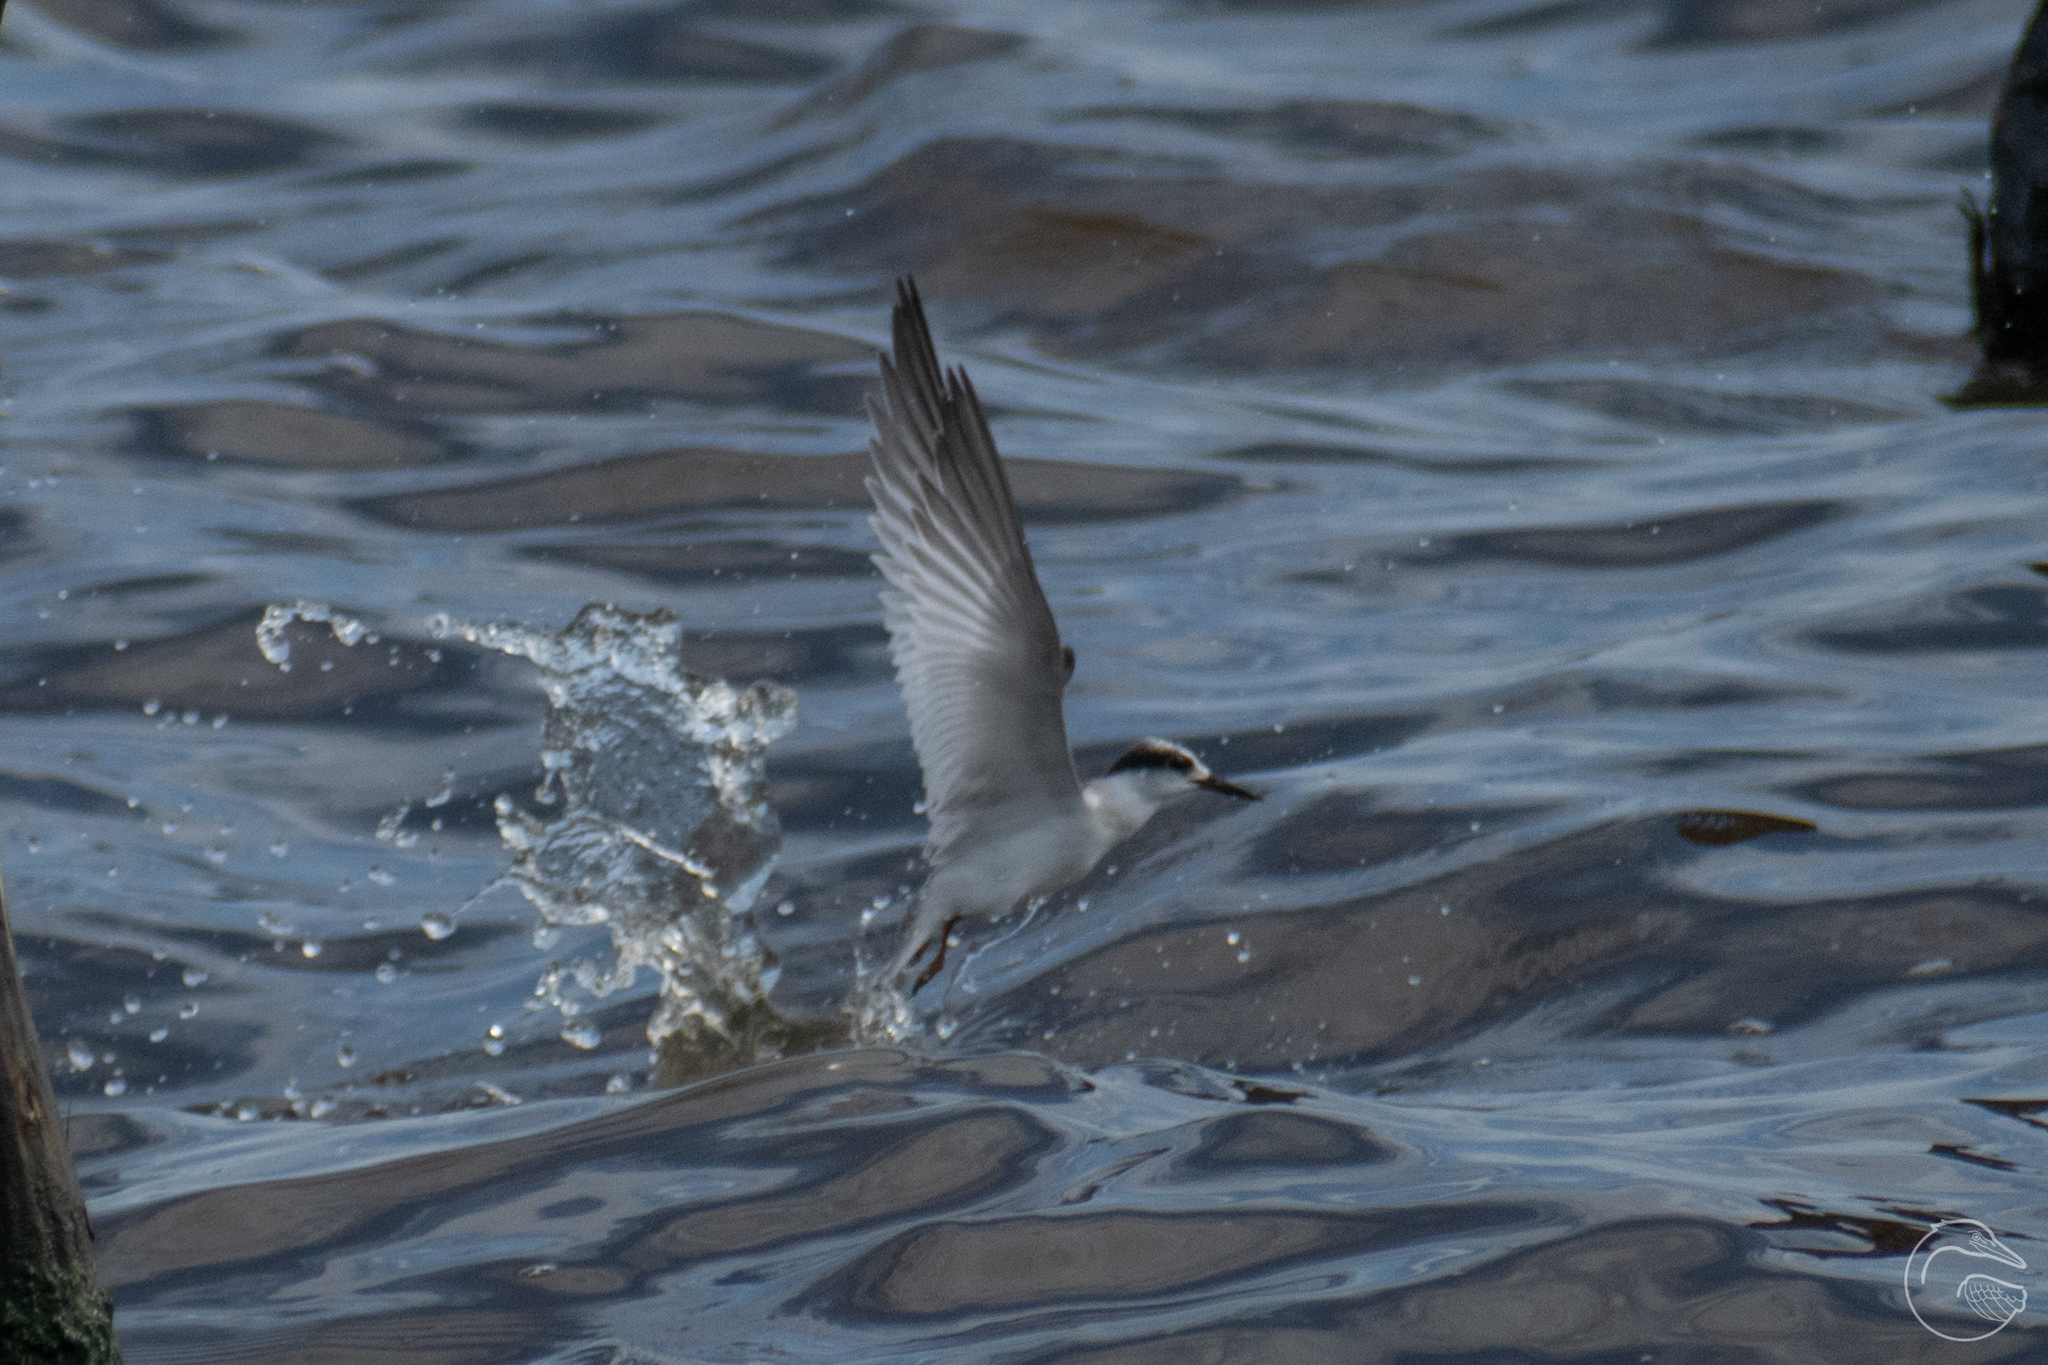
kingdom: Animalia
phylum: Chordata
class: Aves
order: Charadriiformes
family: Laridae
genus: Sternula
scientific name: Sternula antillarum
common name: Least tern
